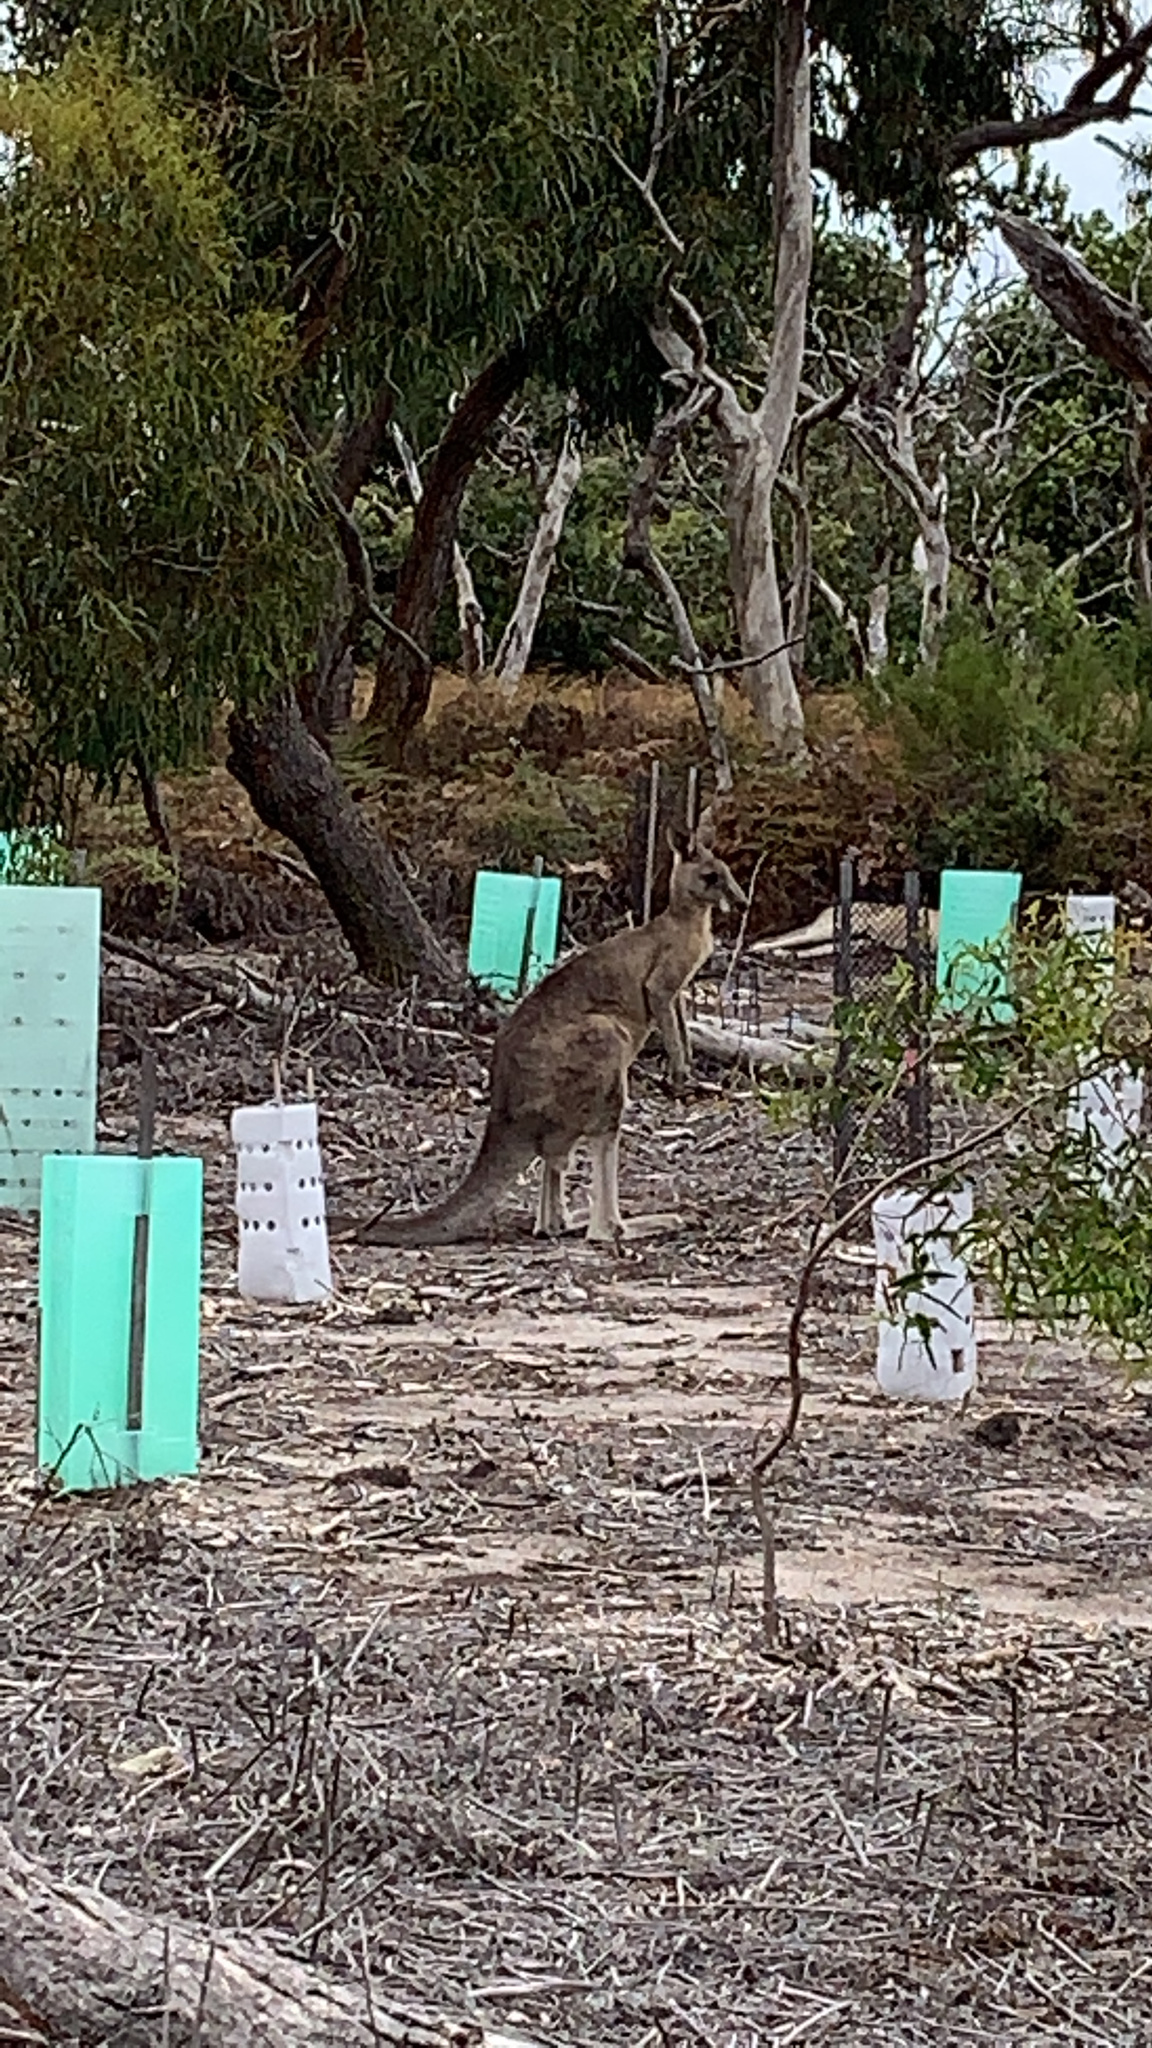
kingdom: Animalia
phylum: Chordata
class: Mammalia
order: Diprotodontia
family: Macropodidae
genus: Macropus
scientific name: Macropus giganteus
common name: Eastern grey kangaroo
